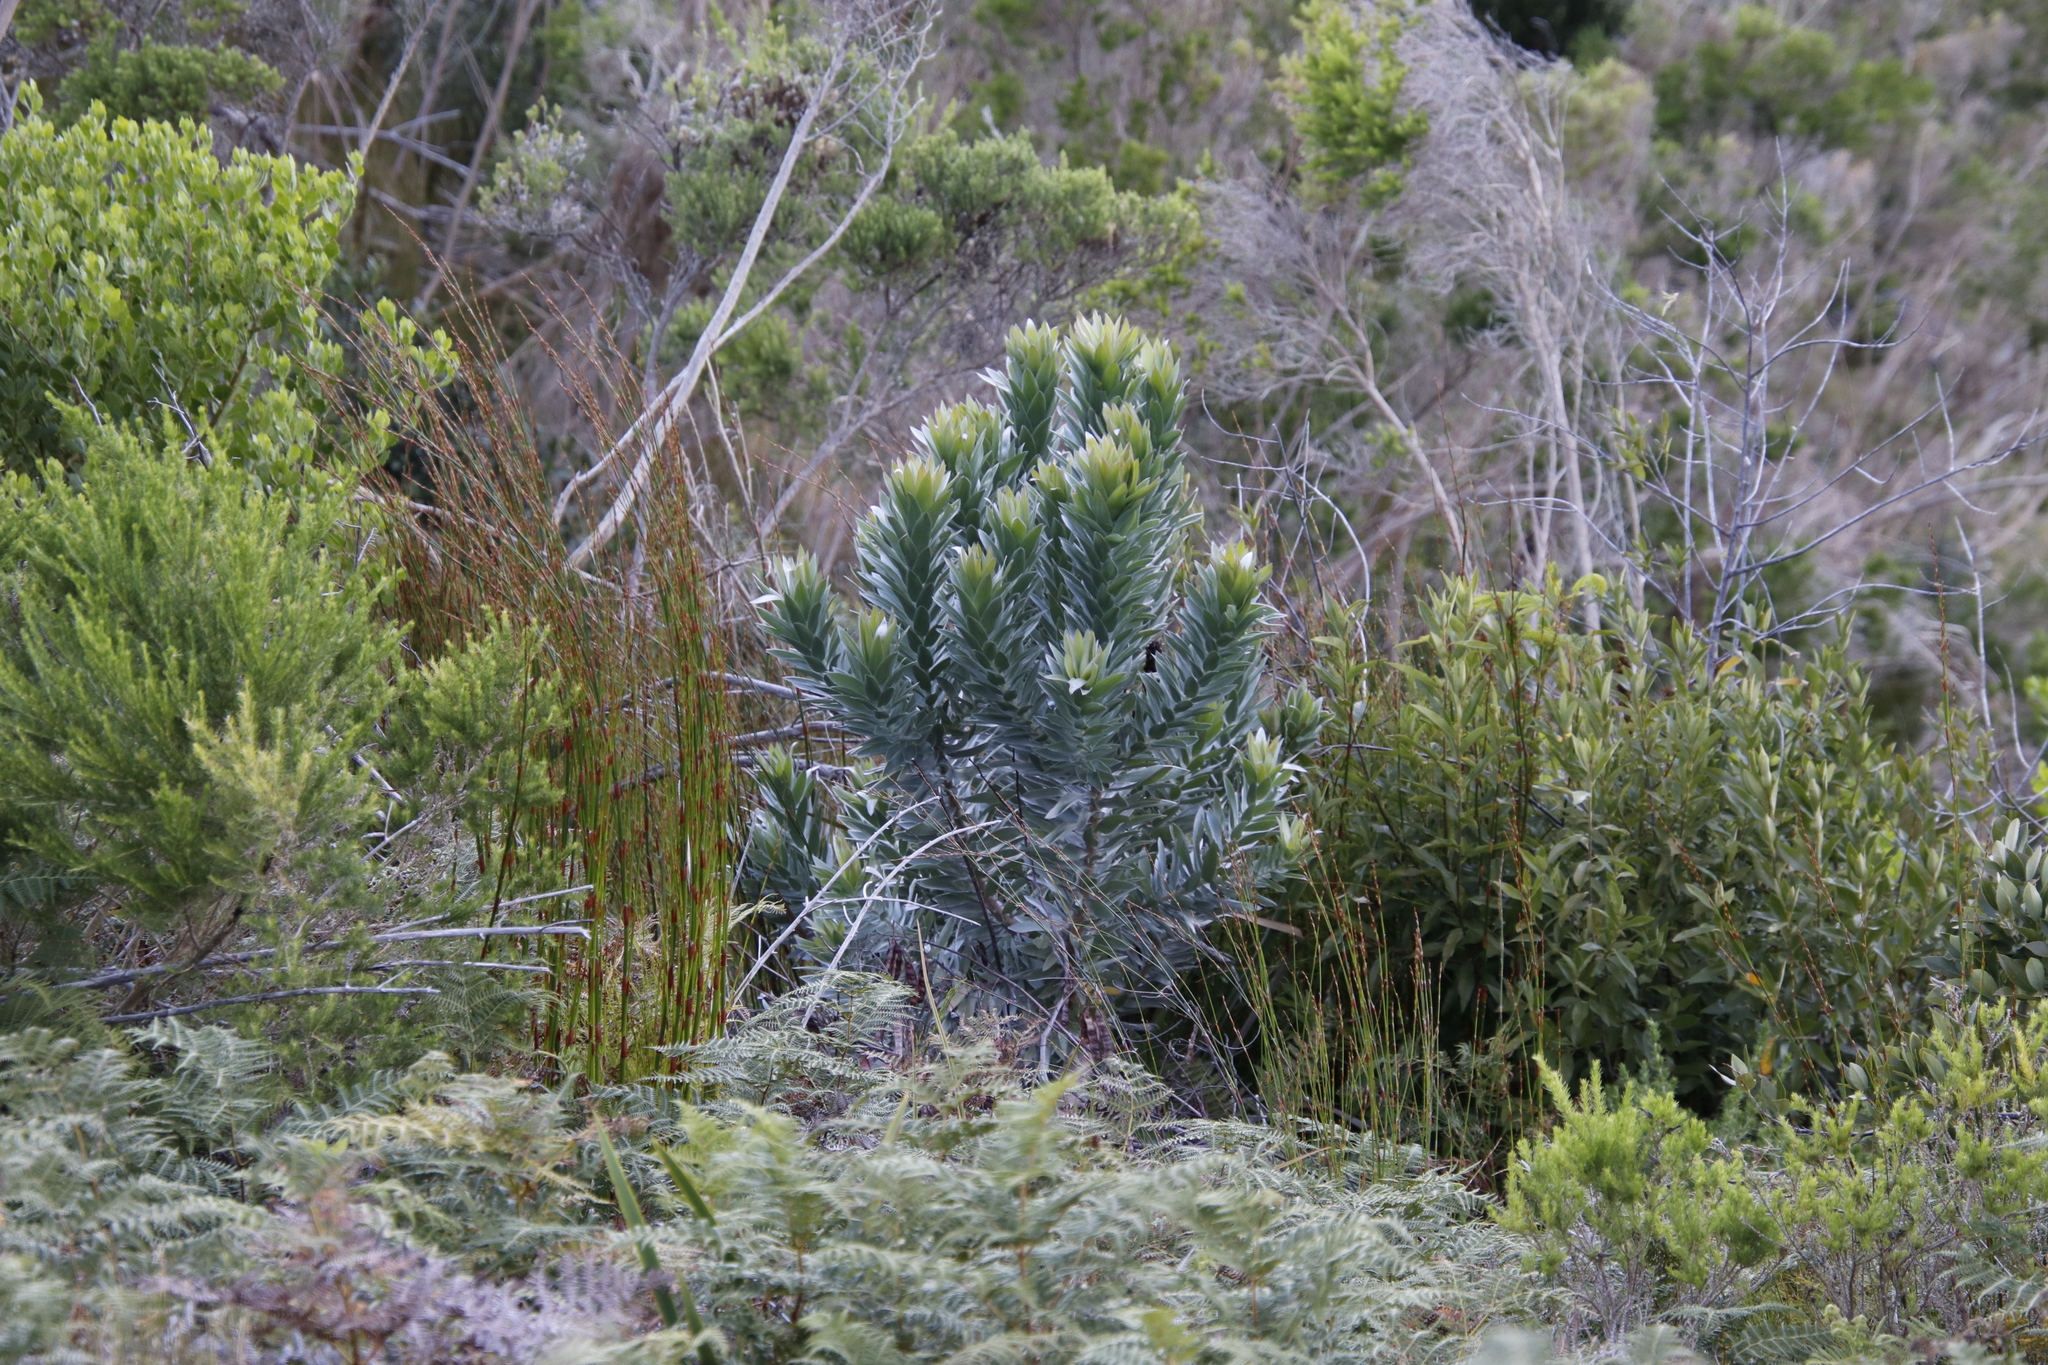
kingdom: Plantae
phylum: Tracheophyta
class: Magnoliopsida
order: Proteales
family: Proteaceae
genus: Leucadendron
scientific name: Leucadendron argenteum
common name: Cape silver tree
